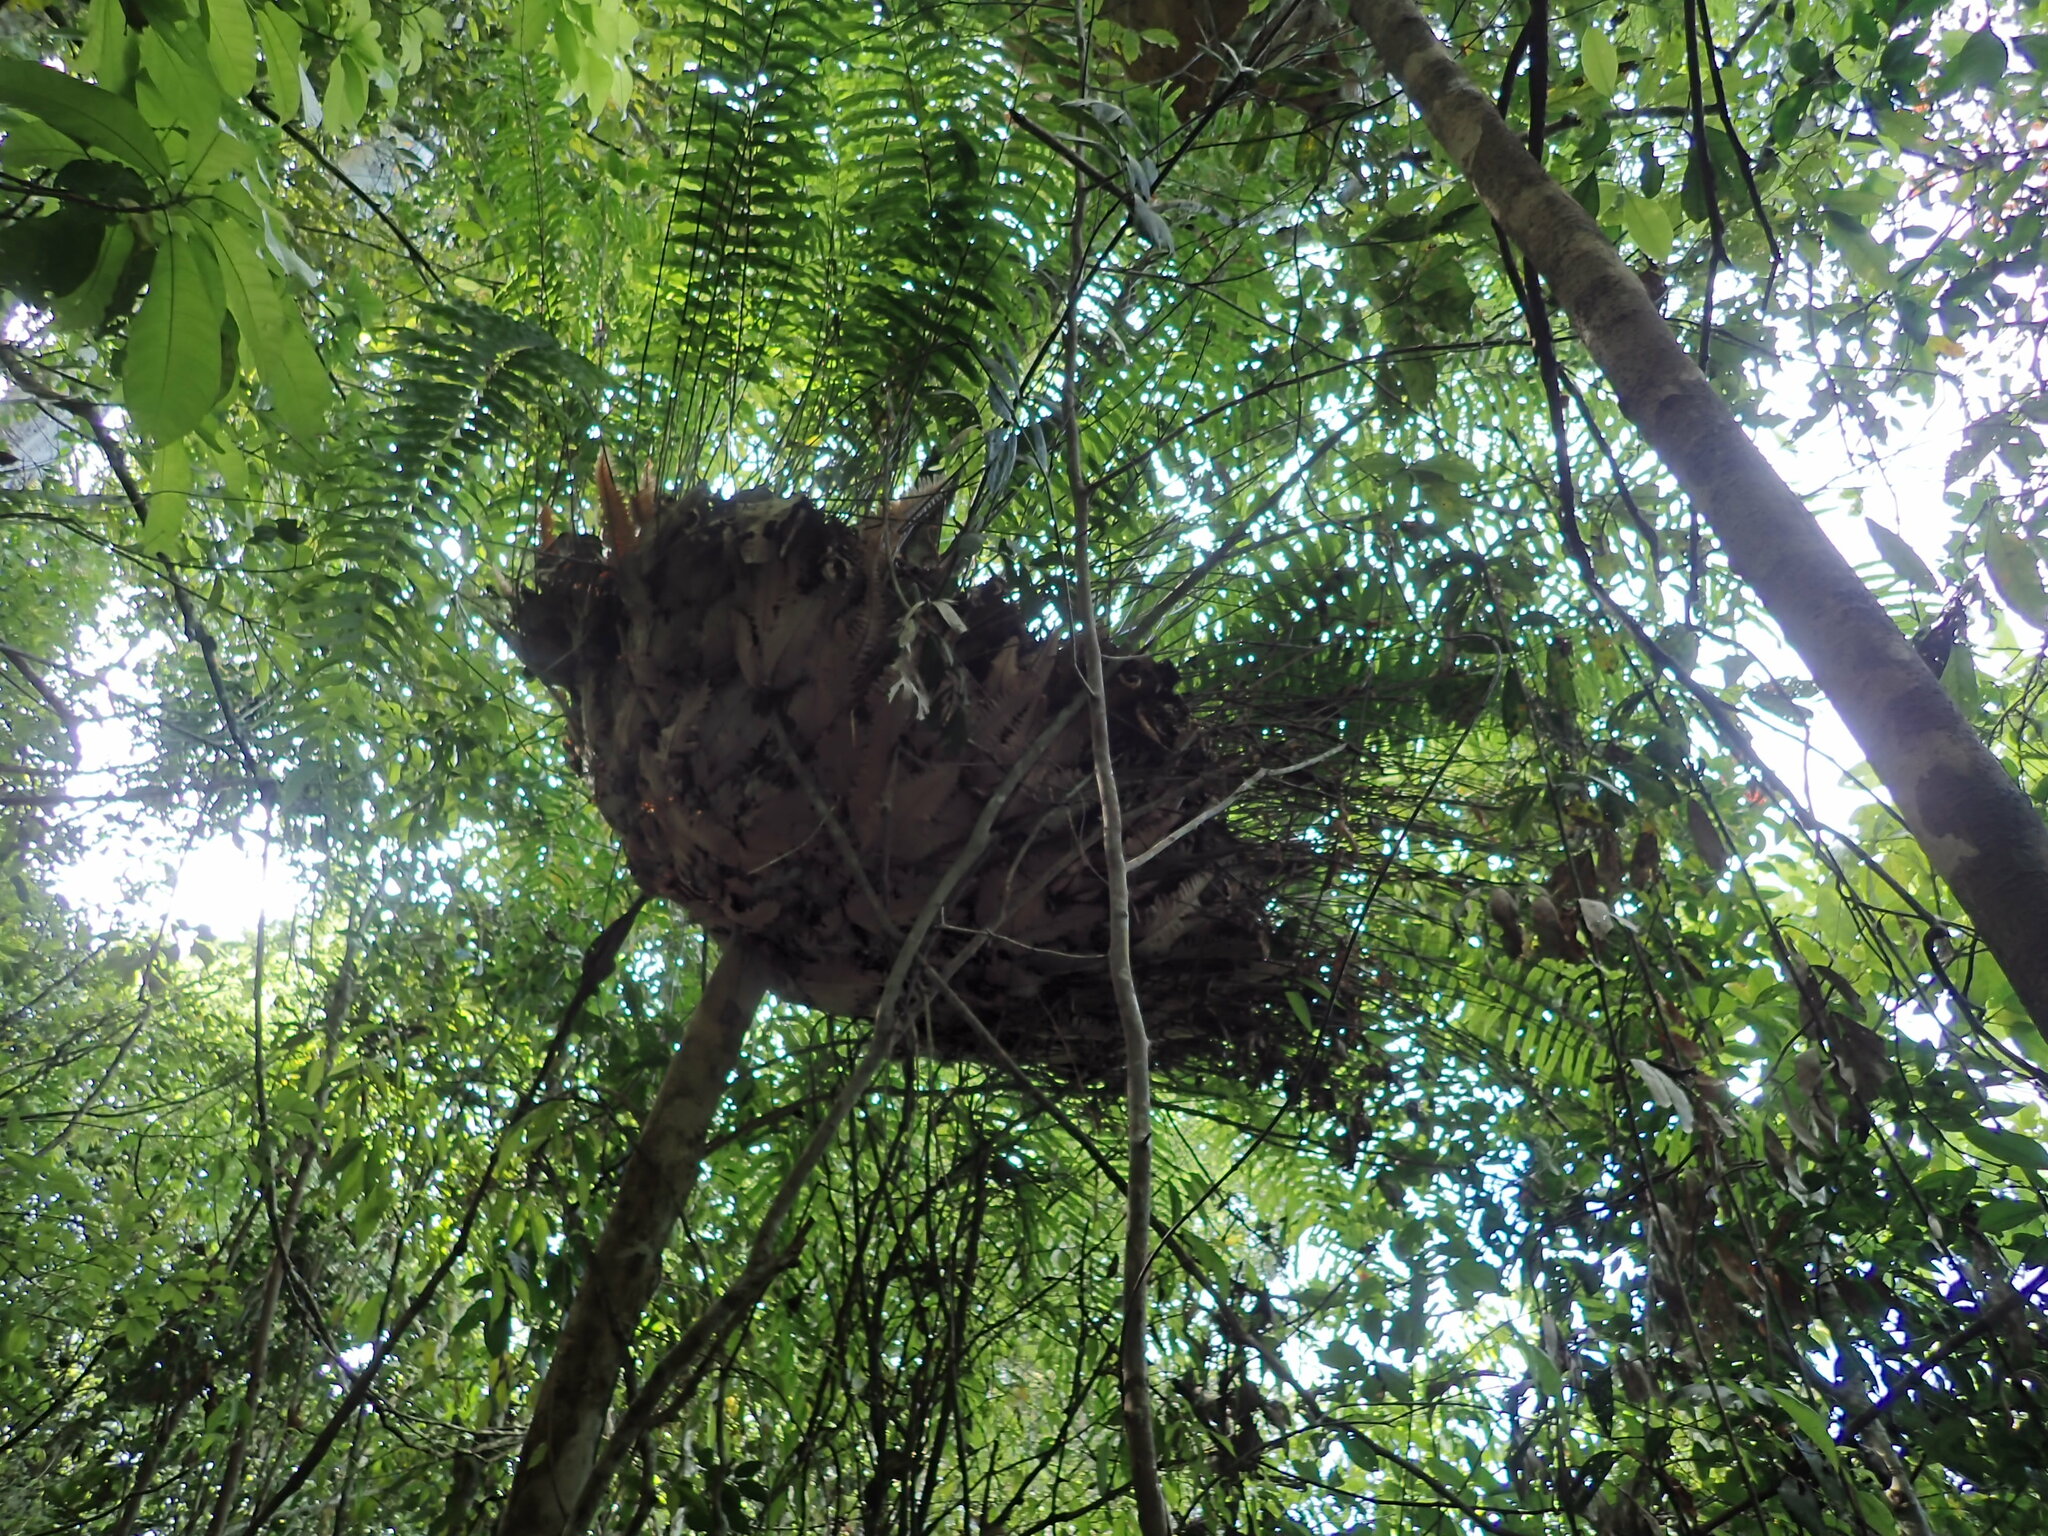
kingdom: Plantae
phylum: Tracheophyta
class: Polypodiopsida
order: Polypodiales
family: Polypodiaceae
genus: Drynaria
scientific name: Drynaria rigidula
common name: Basket fern
